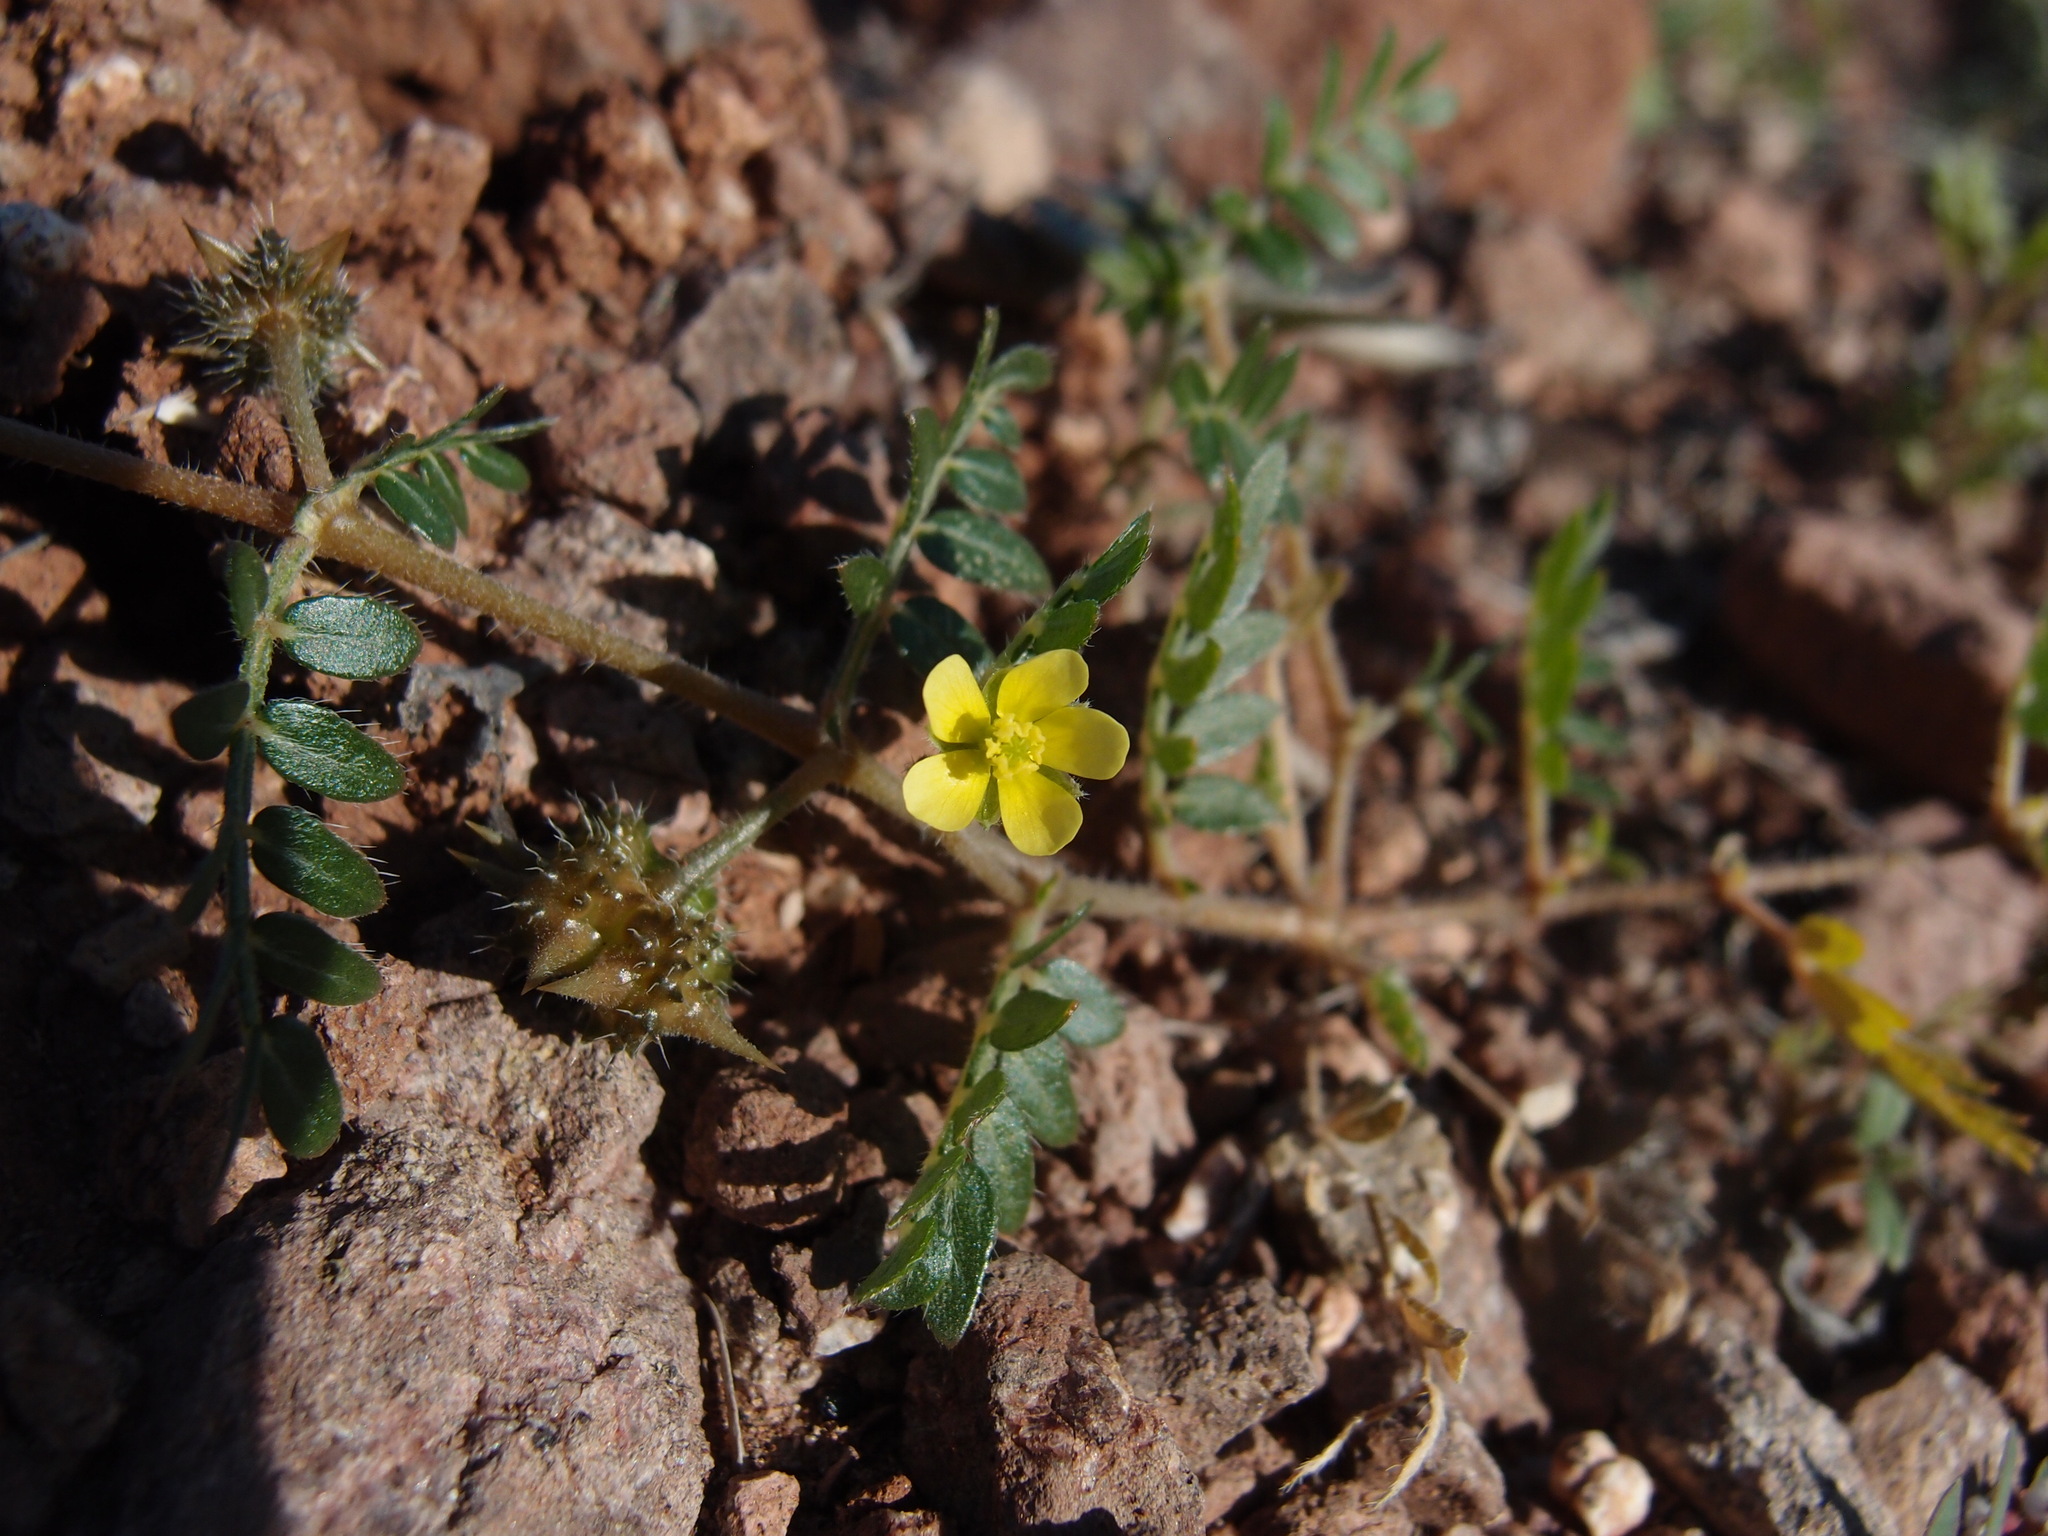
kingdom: Plantae
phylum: Tracheophyta
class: Magnoliopsida
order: Zygophyllales
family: Zygophyllaceae
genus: Tribulus
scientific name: Tribulus terrestris
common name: Puncturevine
